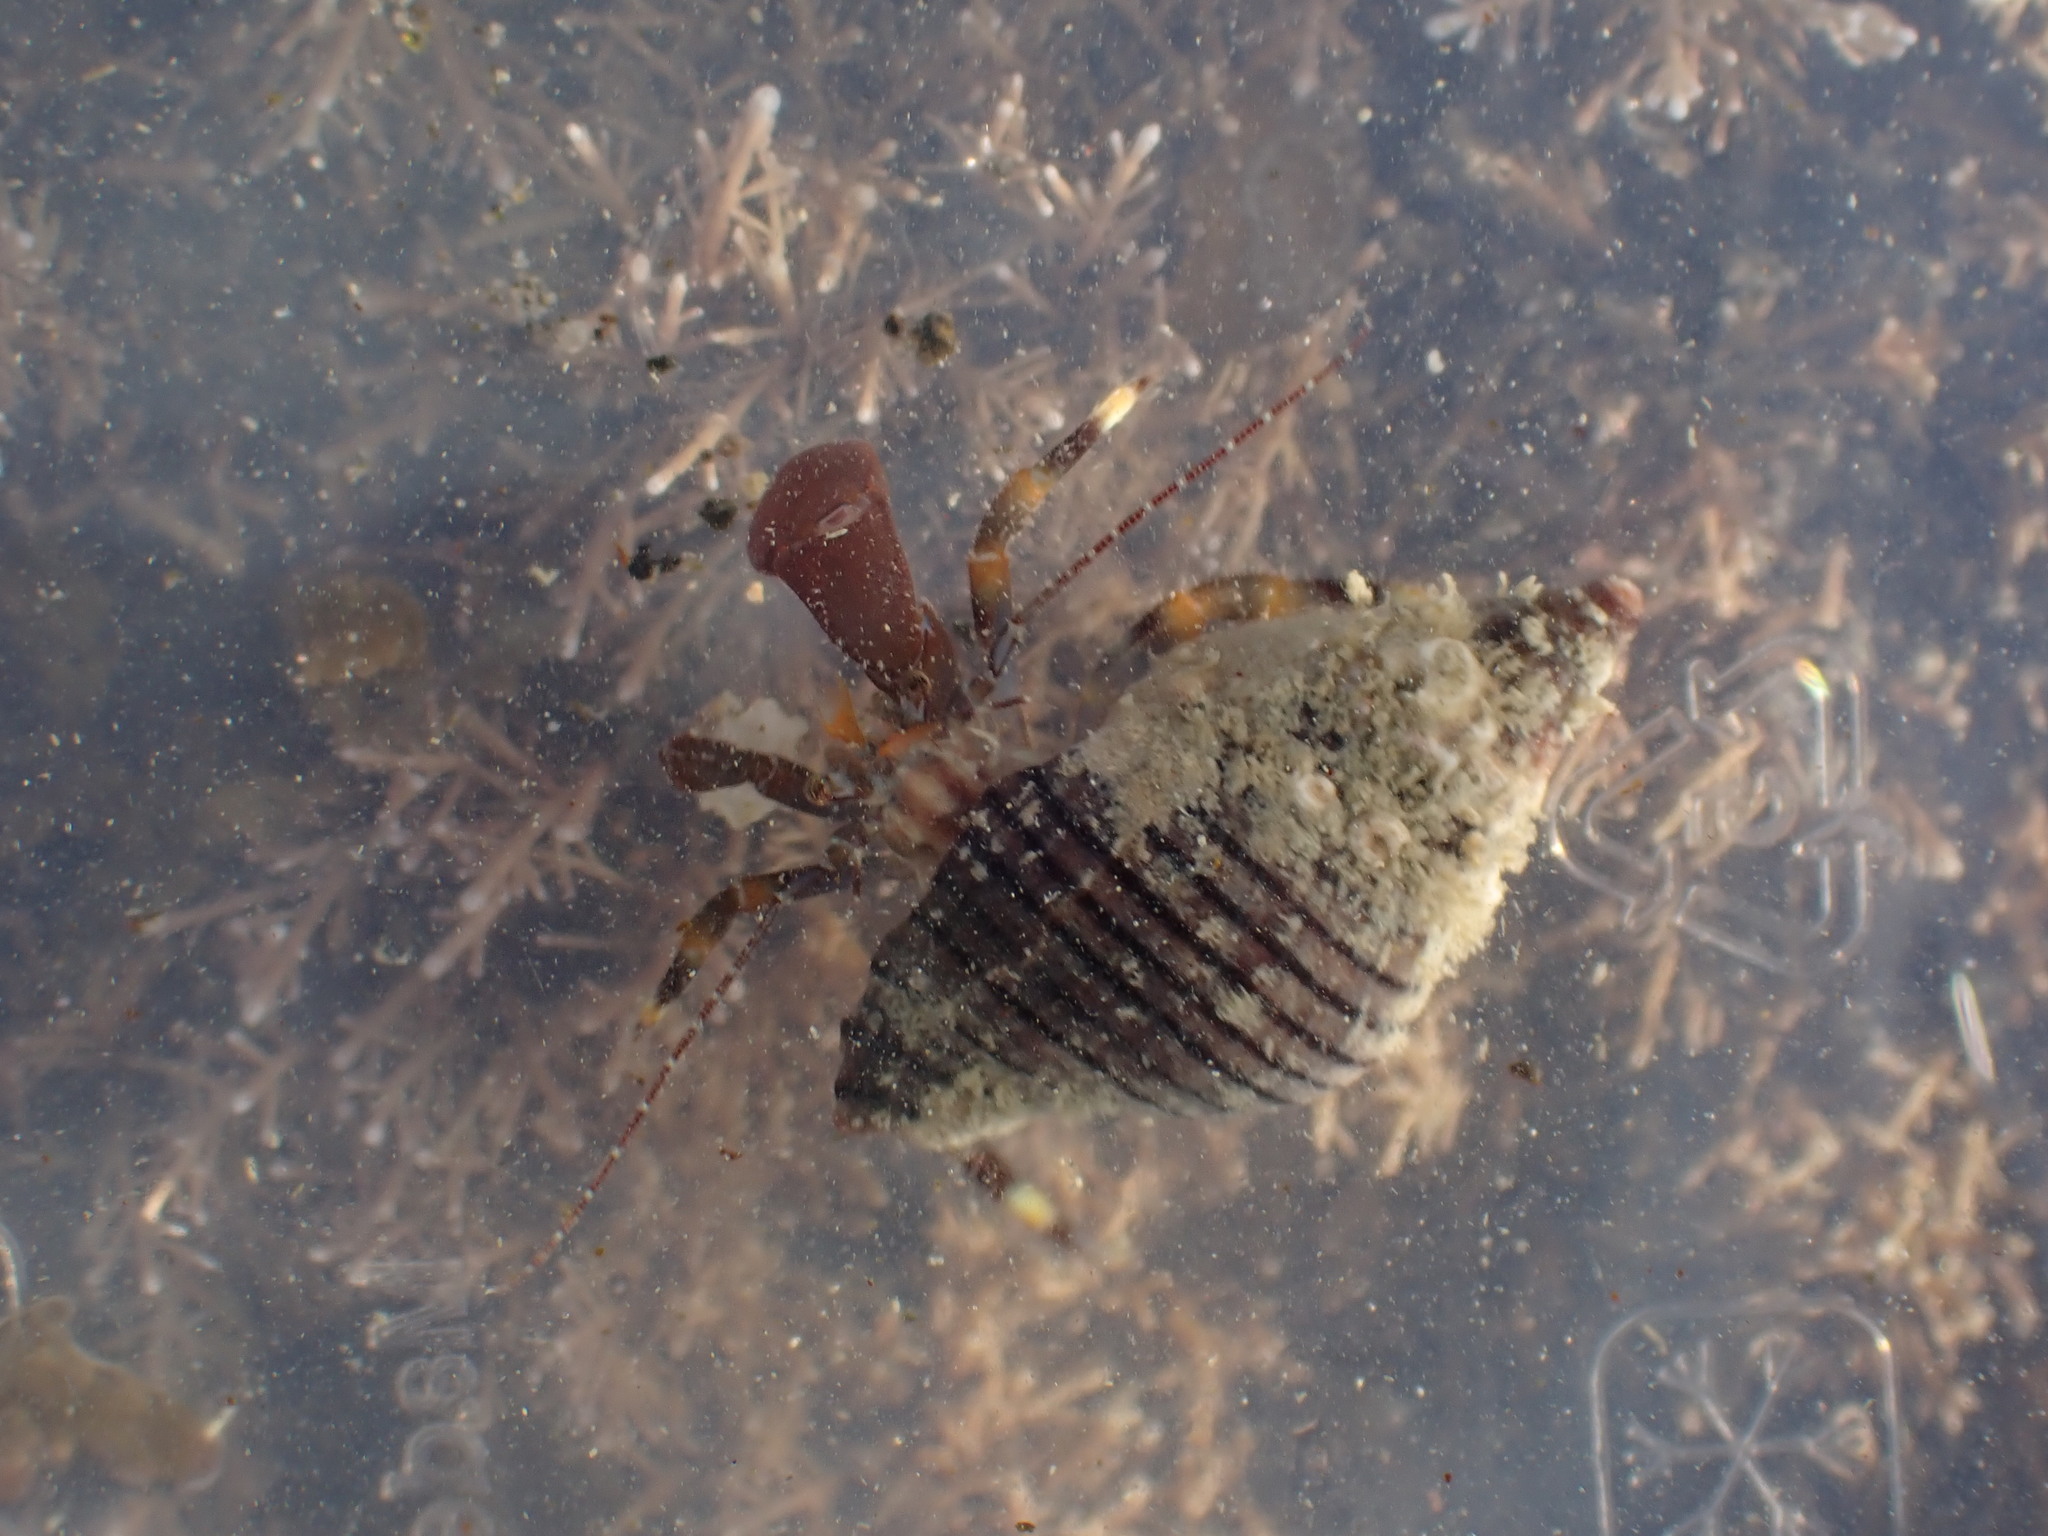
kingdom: Animalia
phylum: Arthropoda
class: Malacostraca
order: Decapoda
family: Paguridae
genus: Pagurixus
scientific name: Pagurixus hectori
